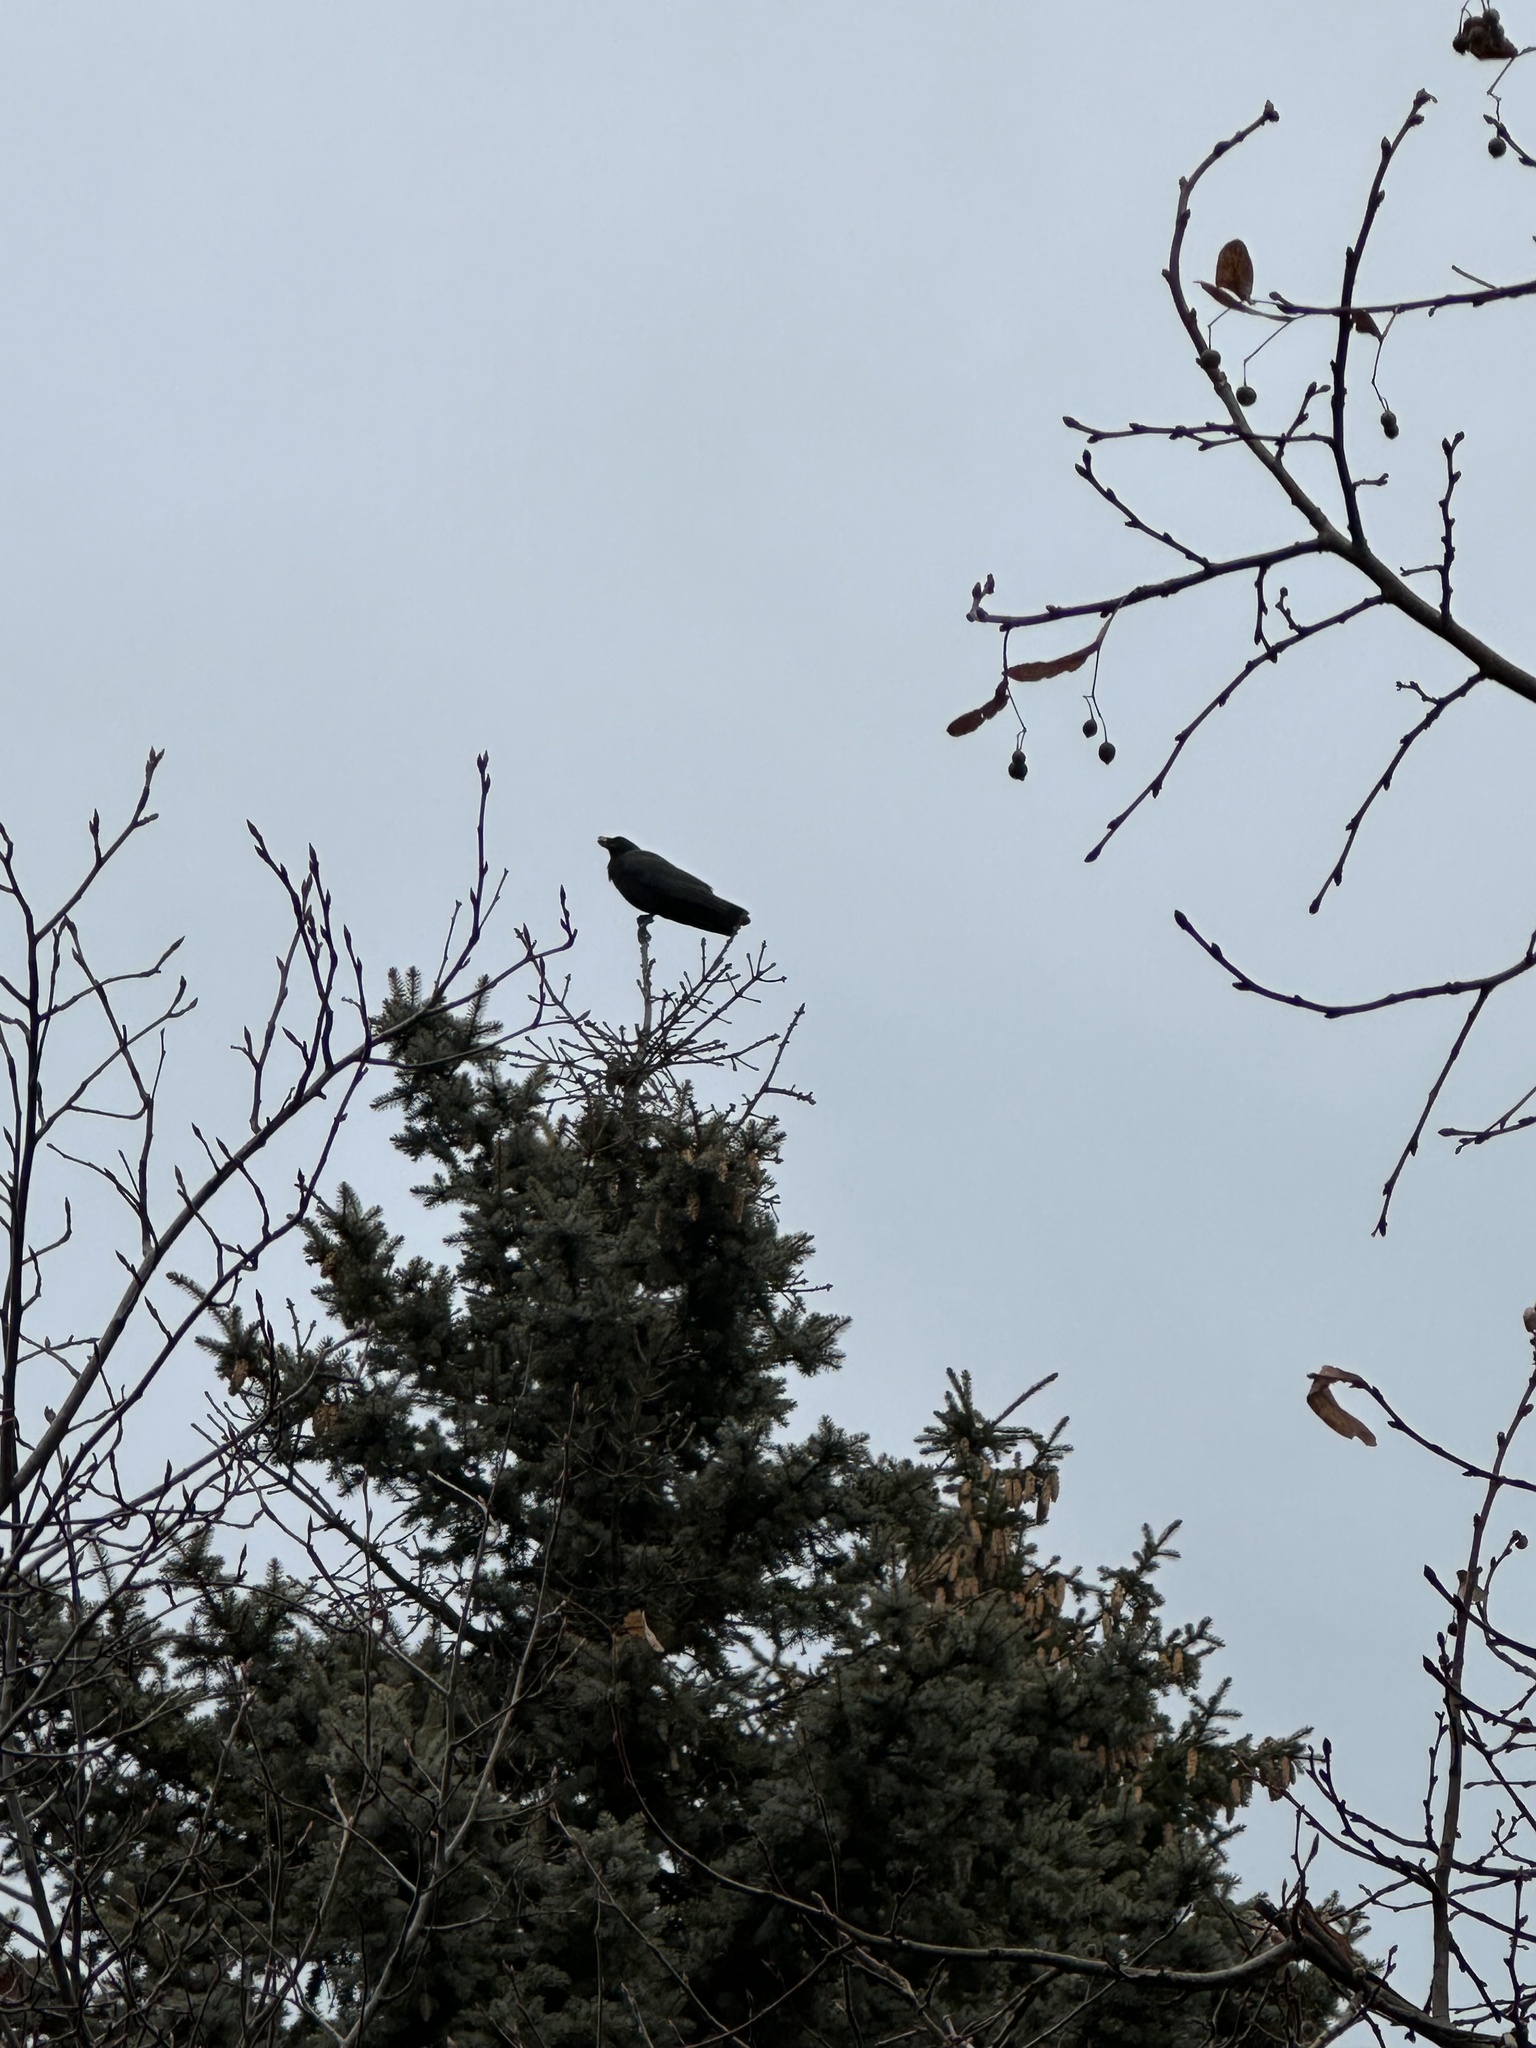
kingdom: Animalia
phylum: Chordata
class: Aves
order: Passeriformes
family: Corvidae
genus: Corvus
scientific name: Corvus brachyrhynchos
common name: American crow
